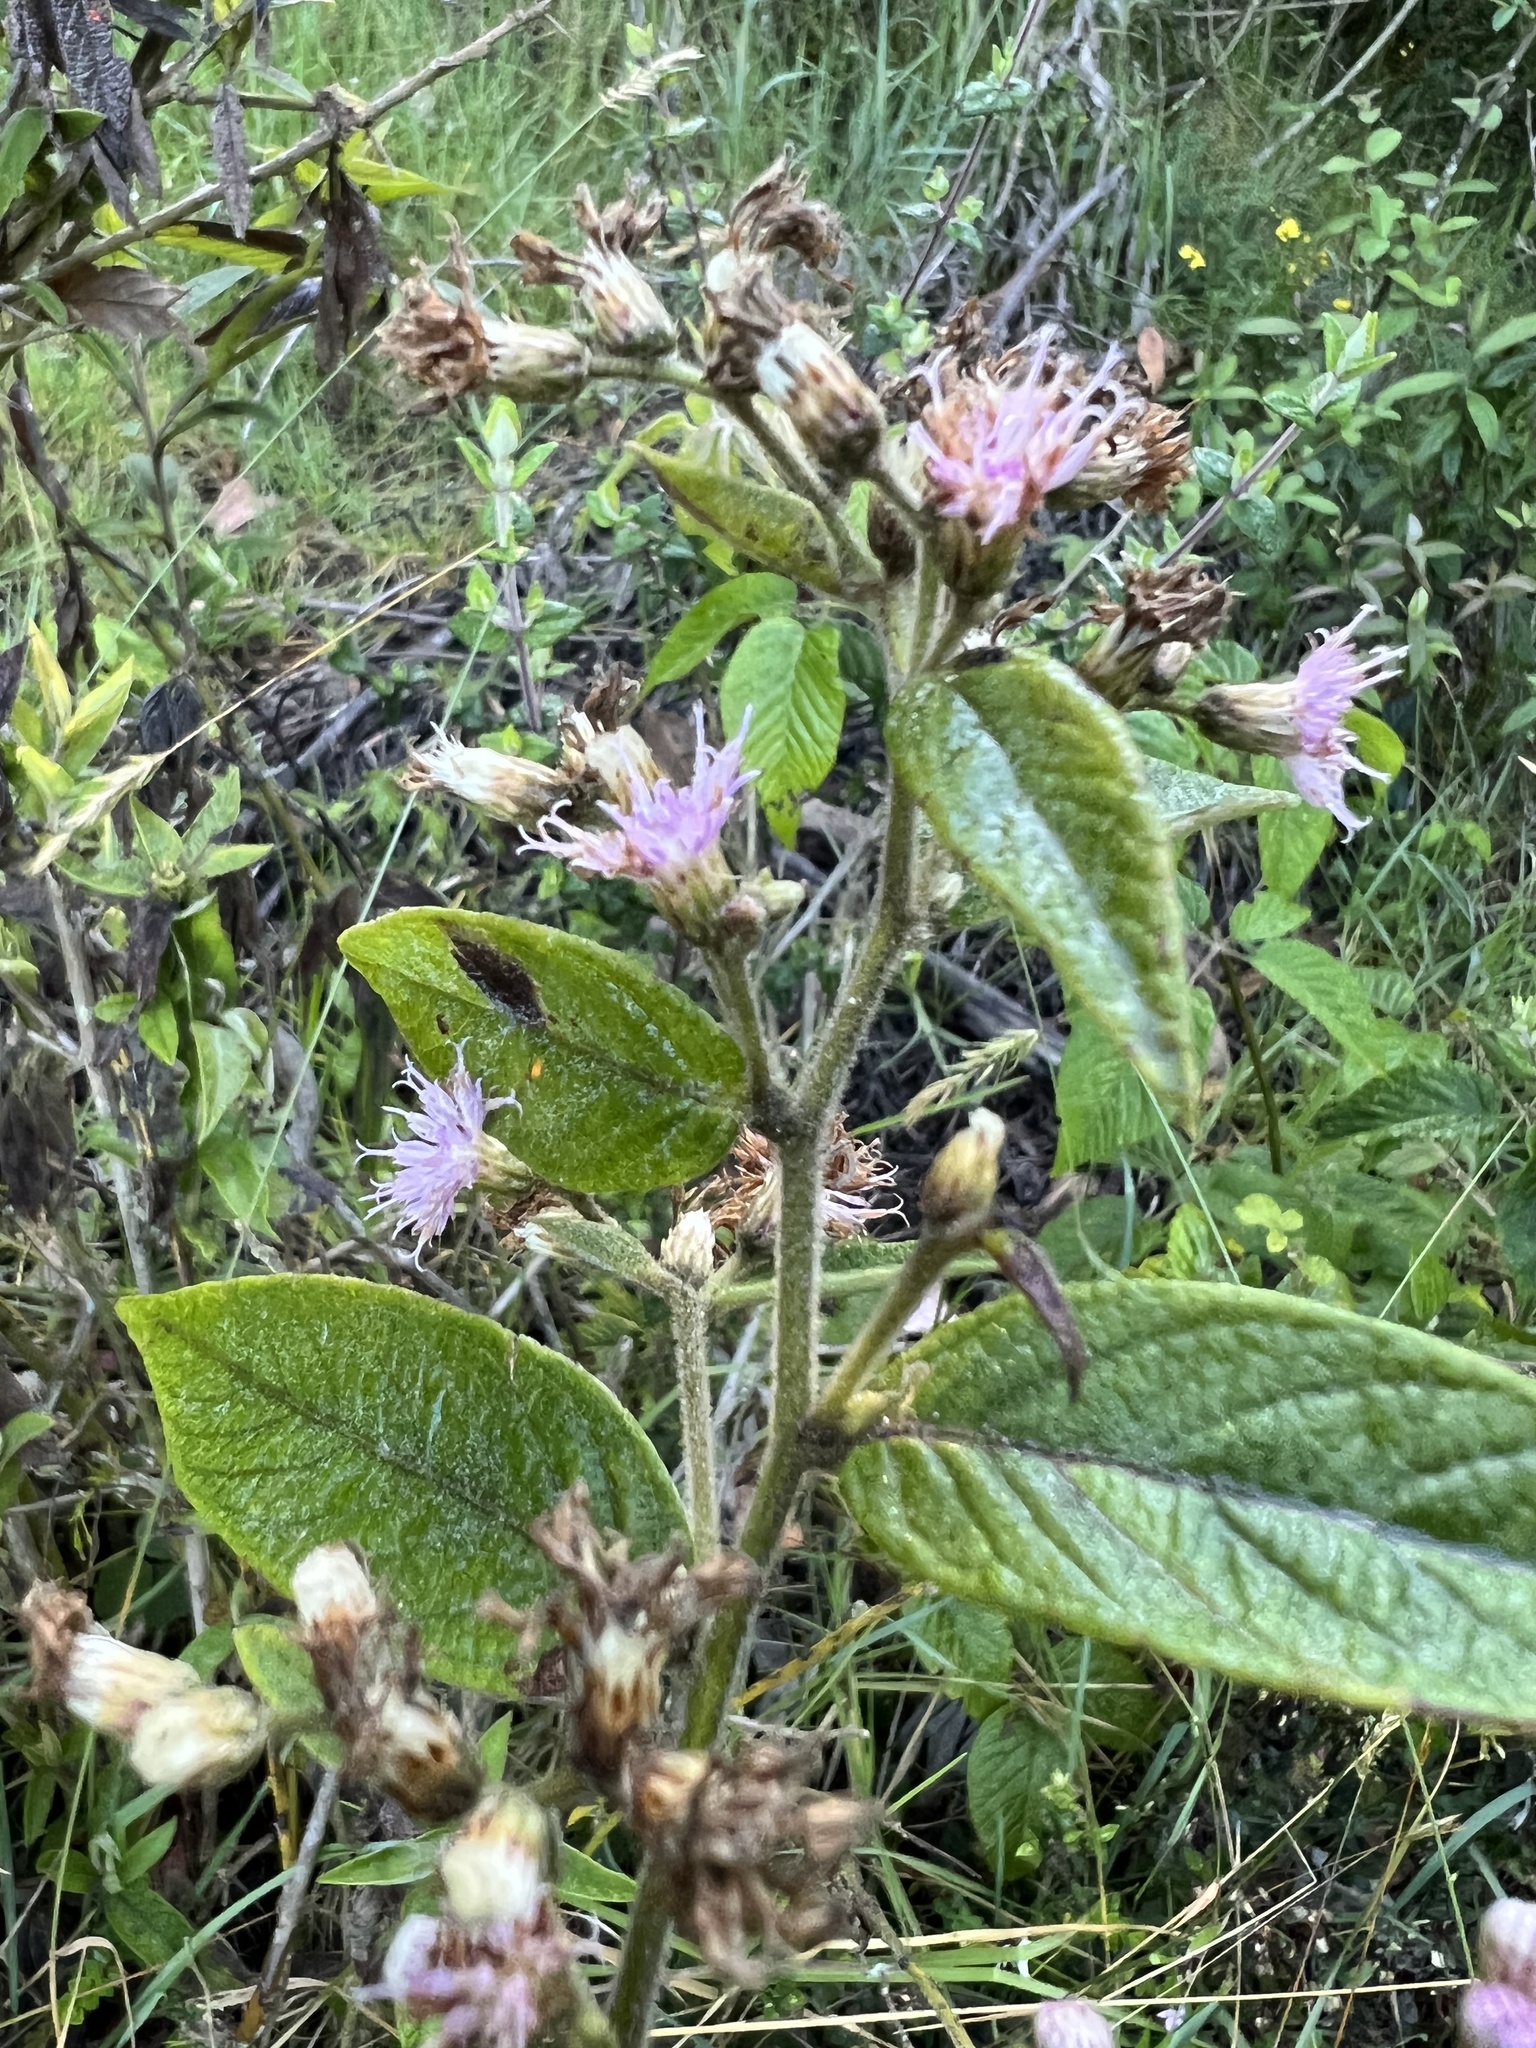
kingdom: Plantae
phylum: Tracheophyta
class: Magnoliopsida
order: Asterales
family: Asteraceae
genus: Lepidaploa
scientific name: Lepidaploa canescens
